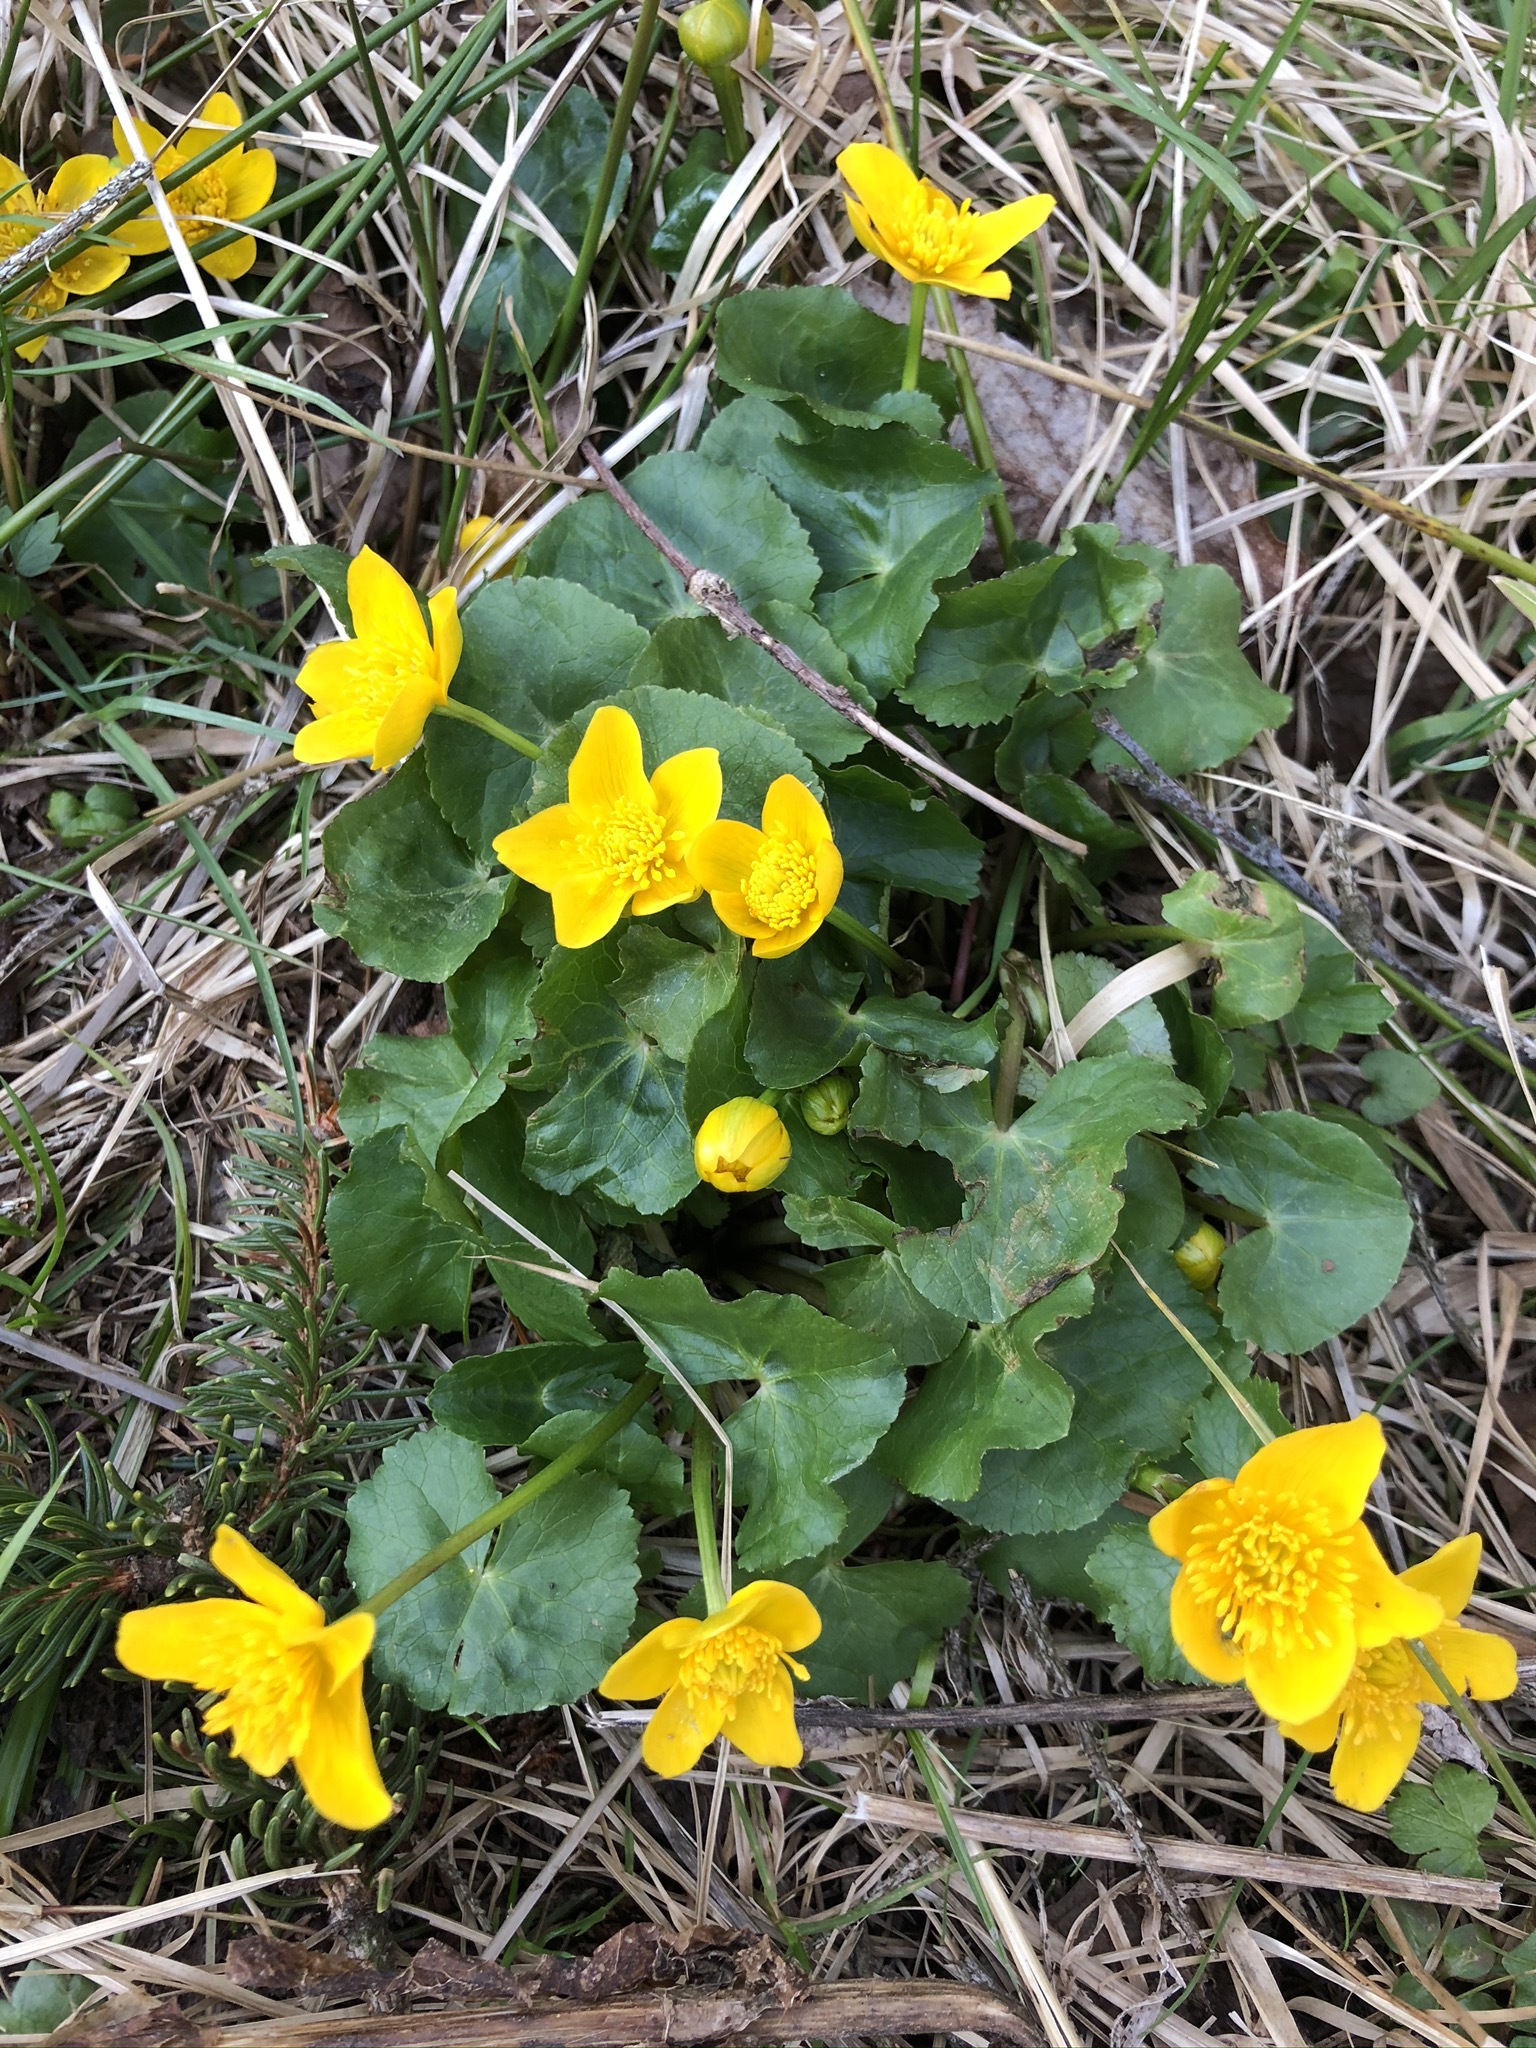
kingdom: Plantae
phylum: Tracheophyta
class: Magnoliopsida
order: Ranunculales
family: Ranunculaceae
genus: Caltha
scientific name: Caltha palustris
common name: Marsh marigold
